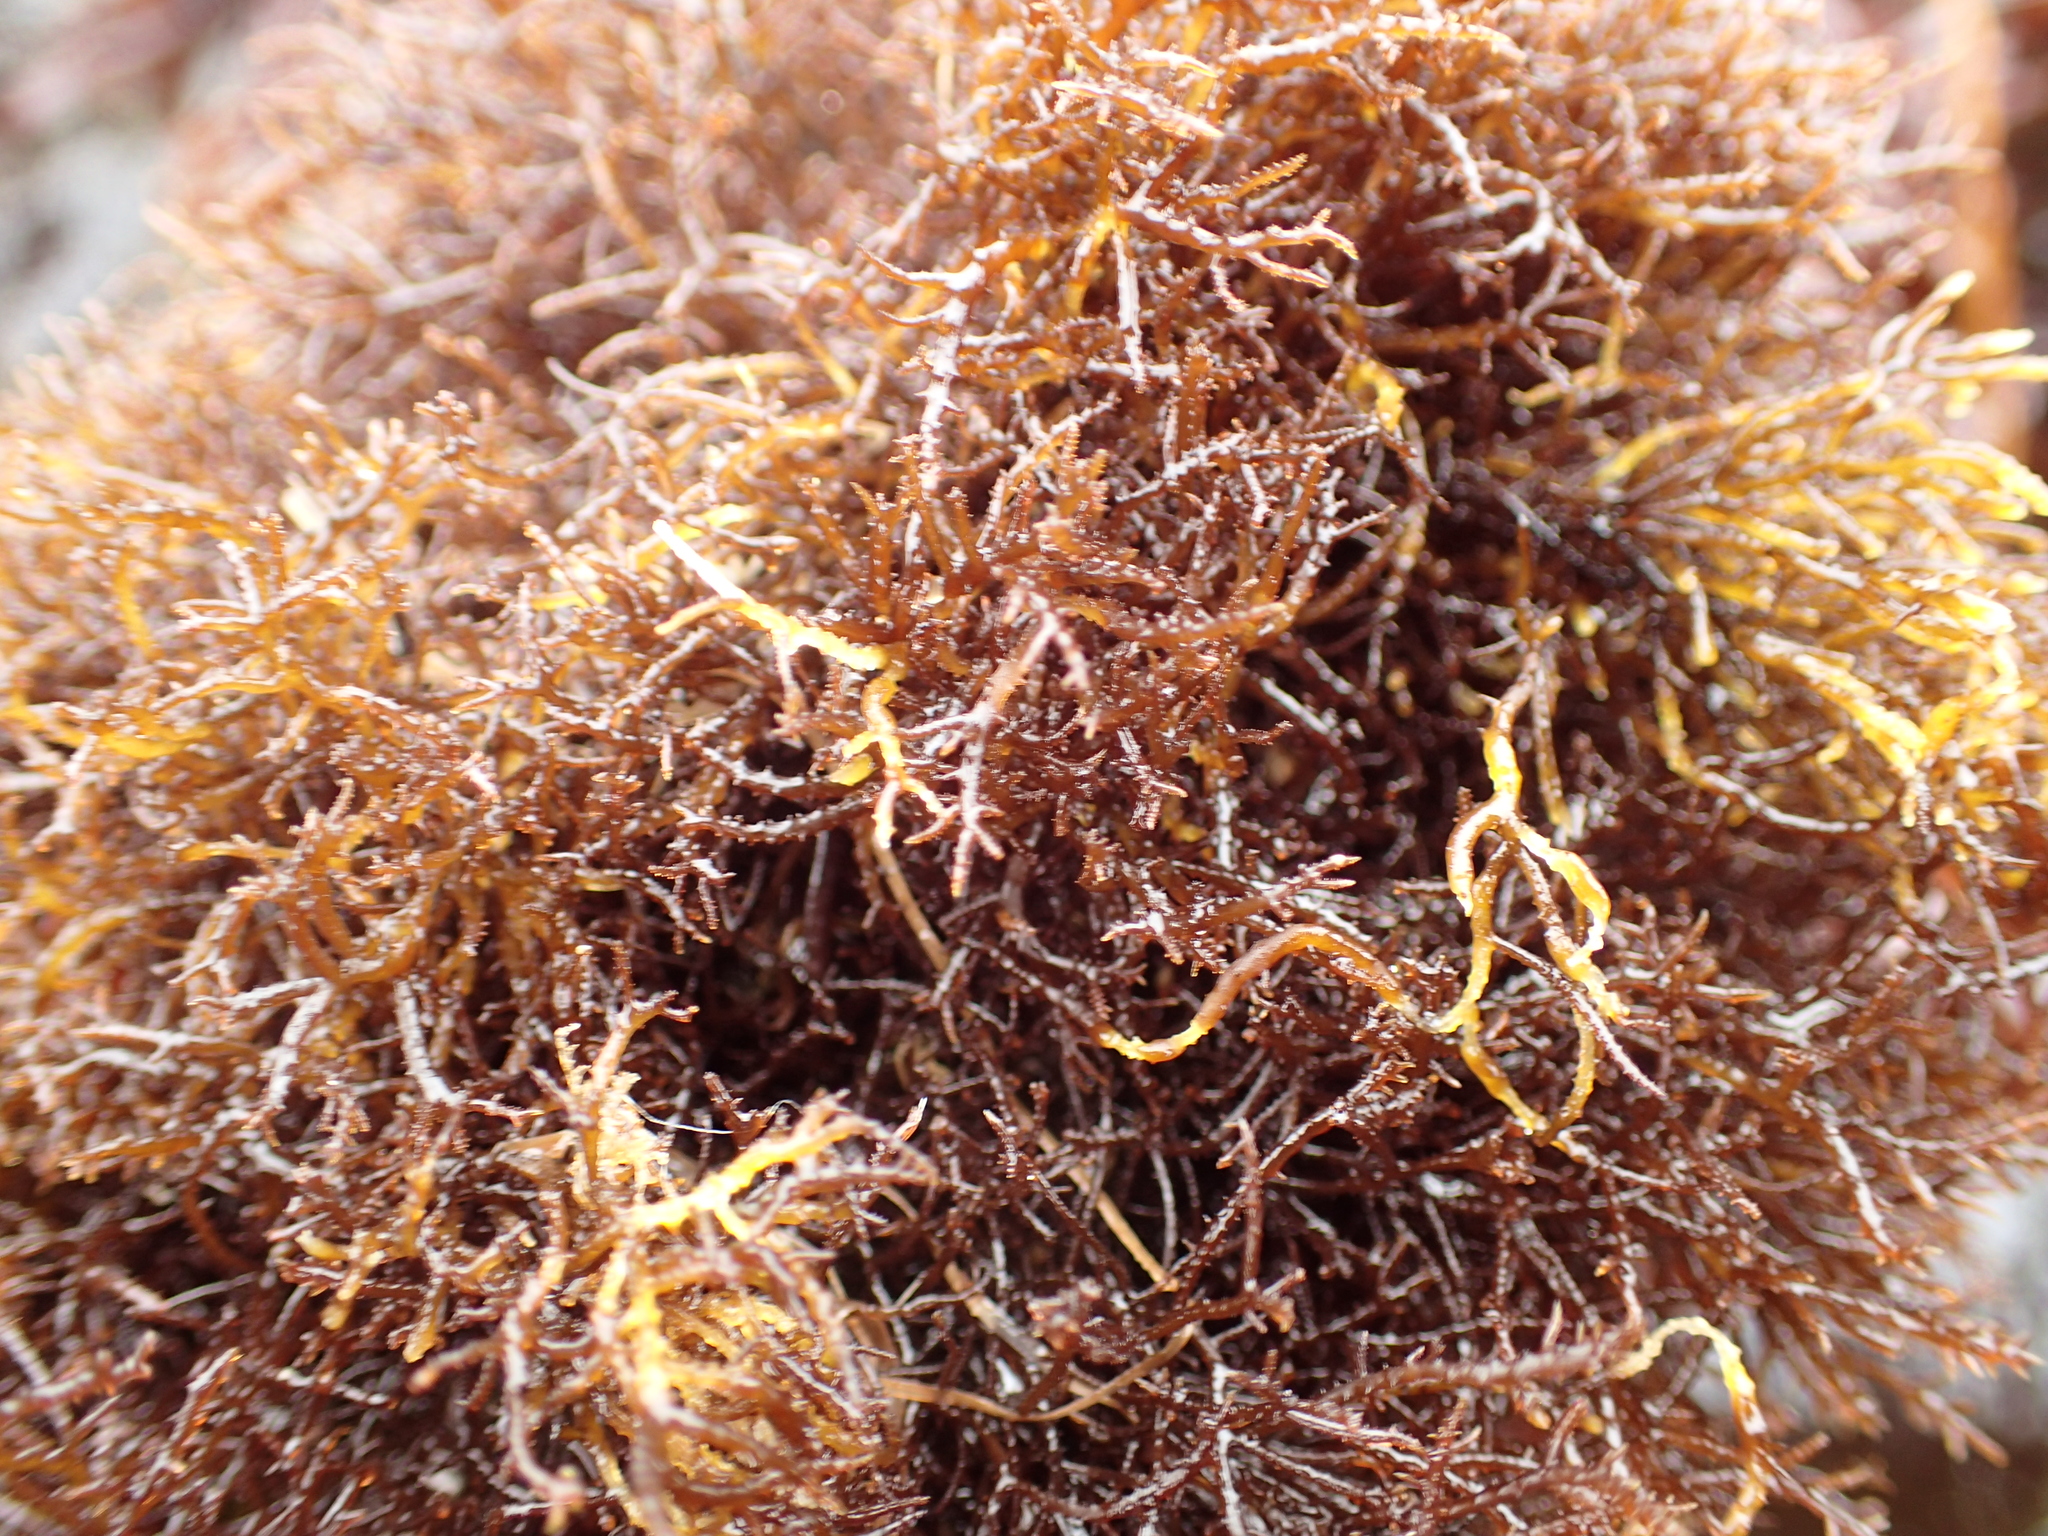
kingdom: Plantae
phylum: Rhodophyta
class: Florideophyceae
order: Gigartinales
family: Endocladiaceae
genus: Endocladia
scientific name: Endocladia muricata
